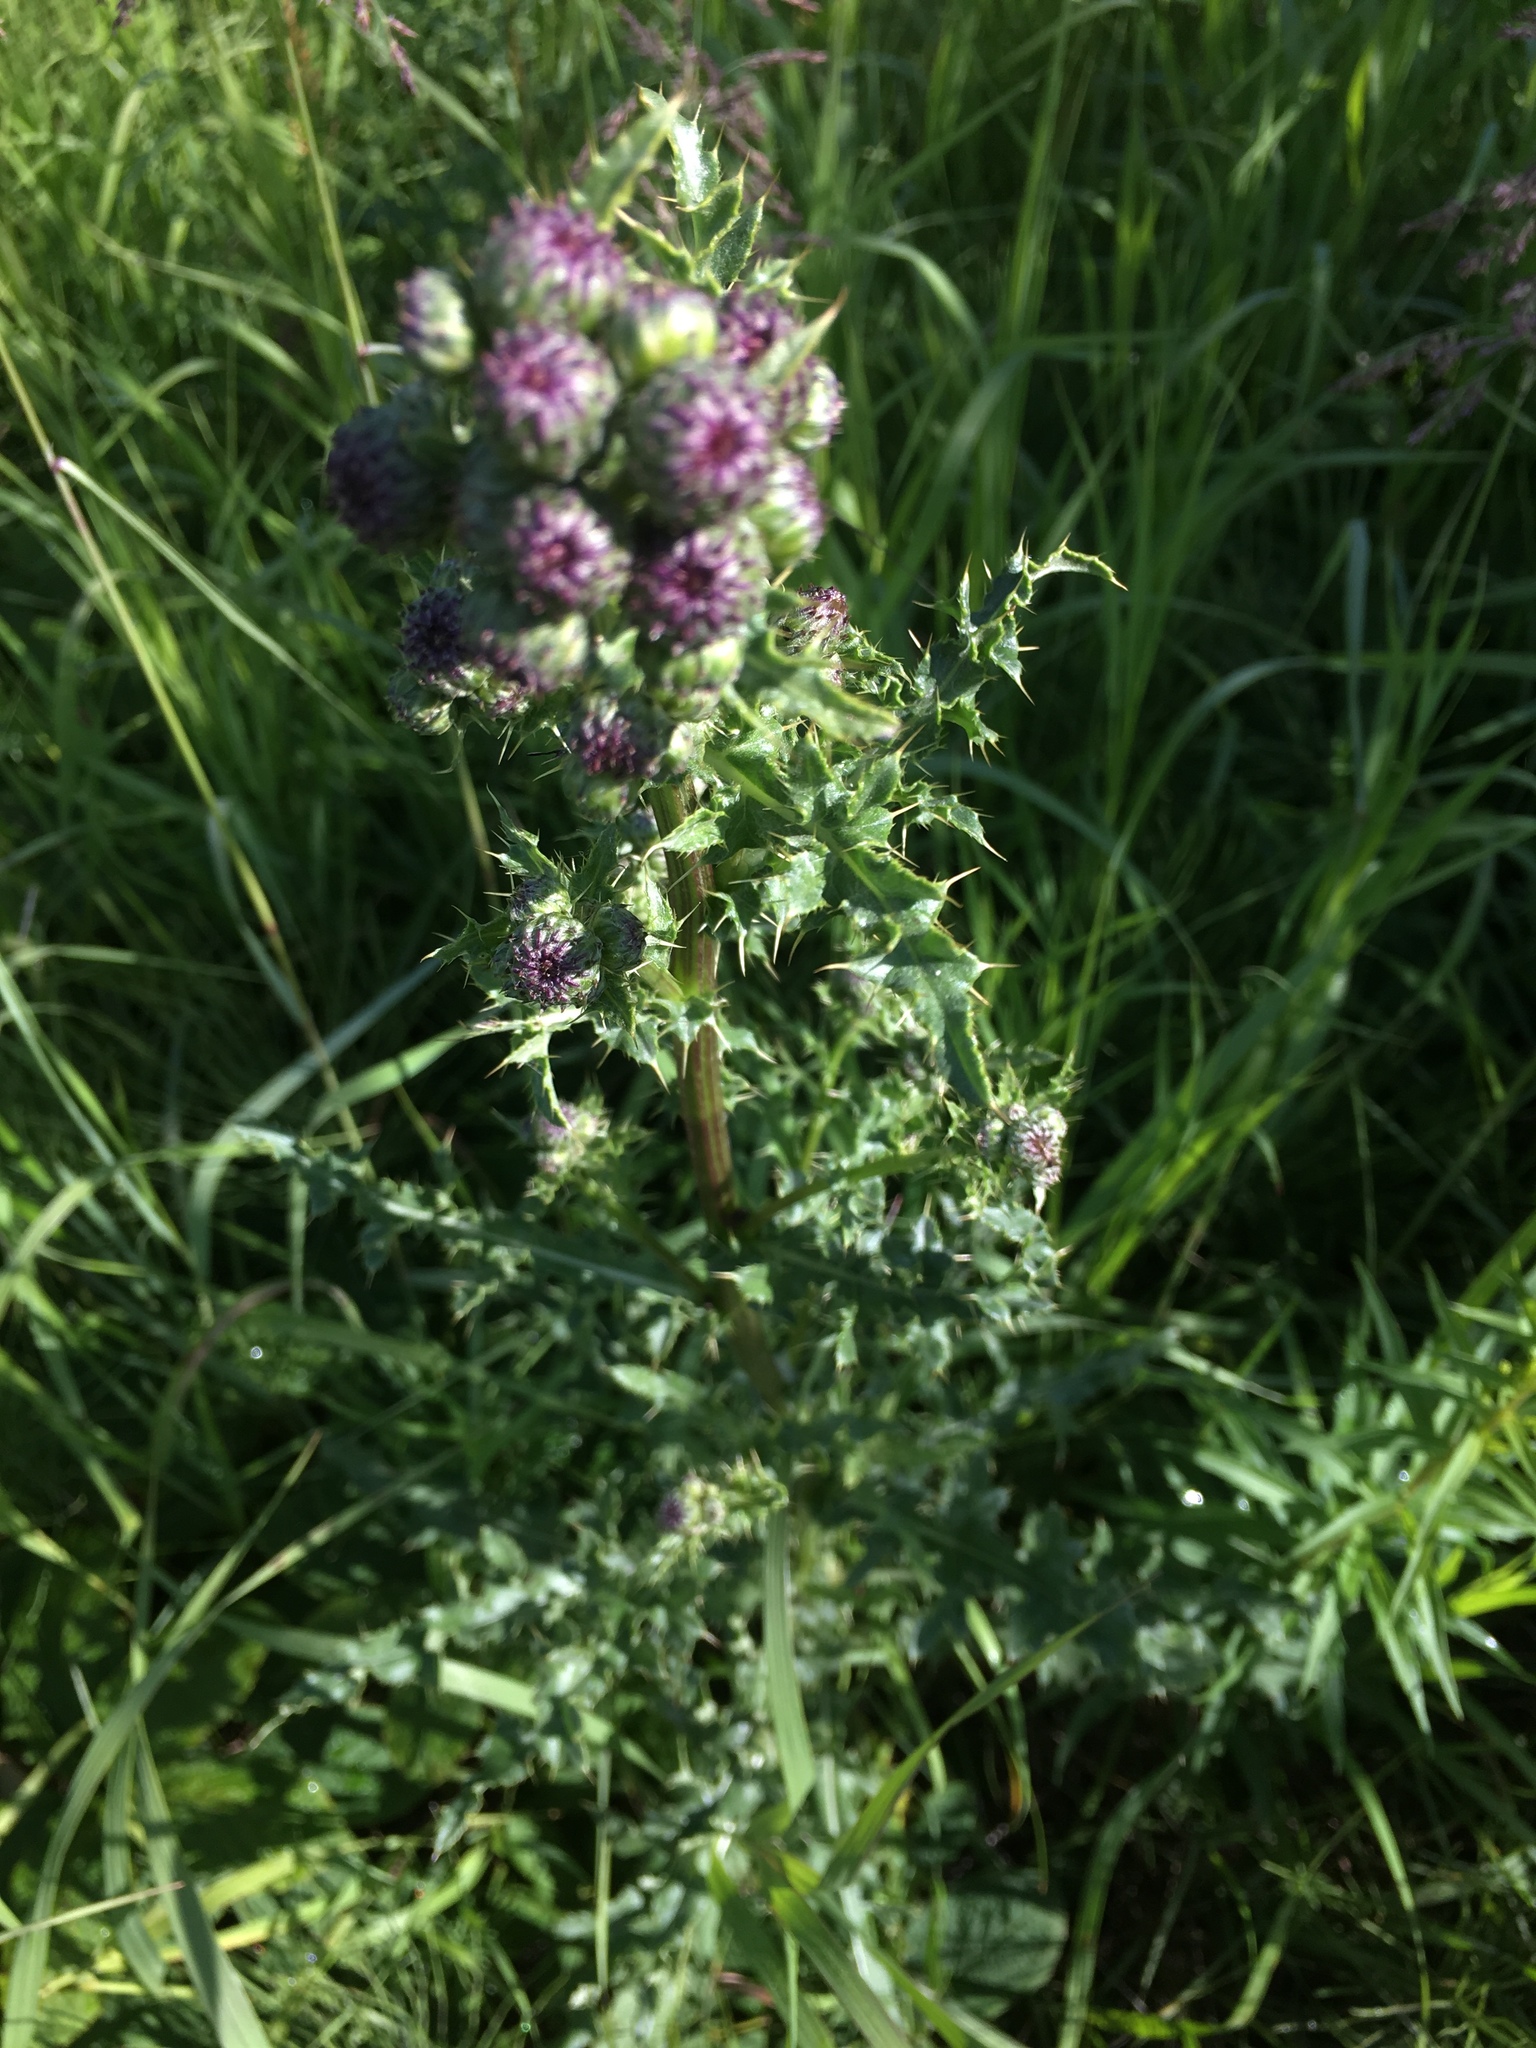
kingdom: Plantae
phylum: Tracheophyta
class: Magnoliopsida
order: Asterales
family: Asteraceae
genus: Cirsium
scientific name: Cirsium arvense
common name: Creeping thistle
